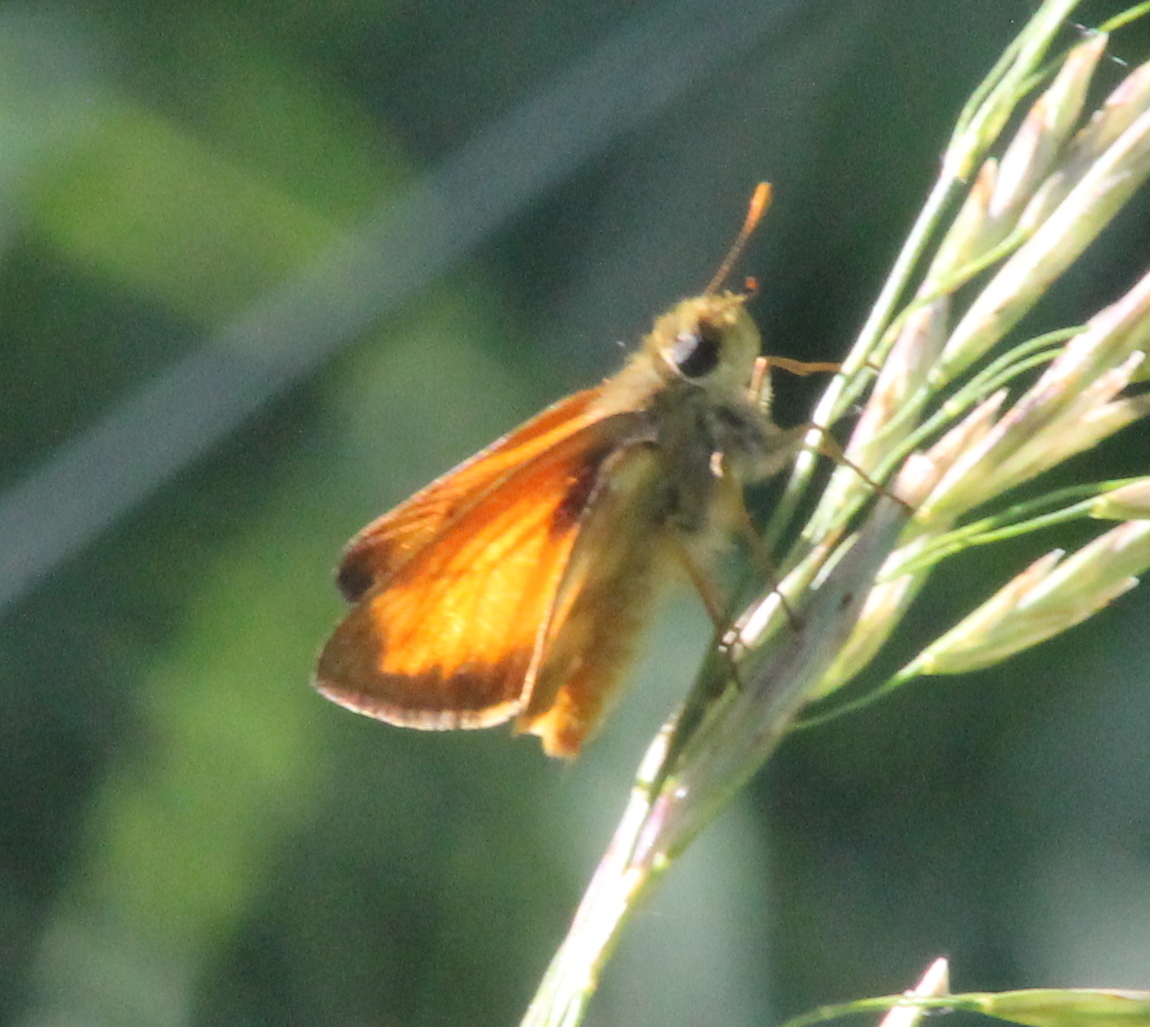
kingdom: Animalia
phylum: Arthropoda
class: Insecta
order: Lepidoptera
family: Hesperiidae
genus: Lon
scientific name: Lon taxiles
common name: Taxiles skipper
